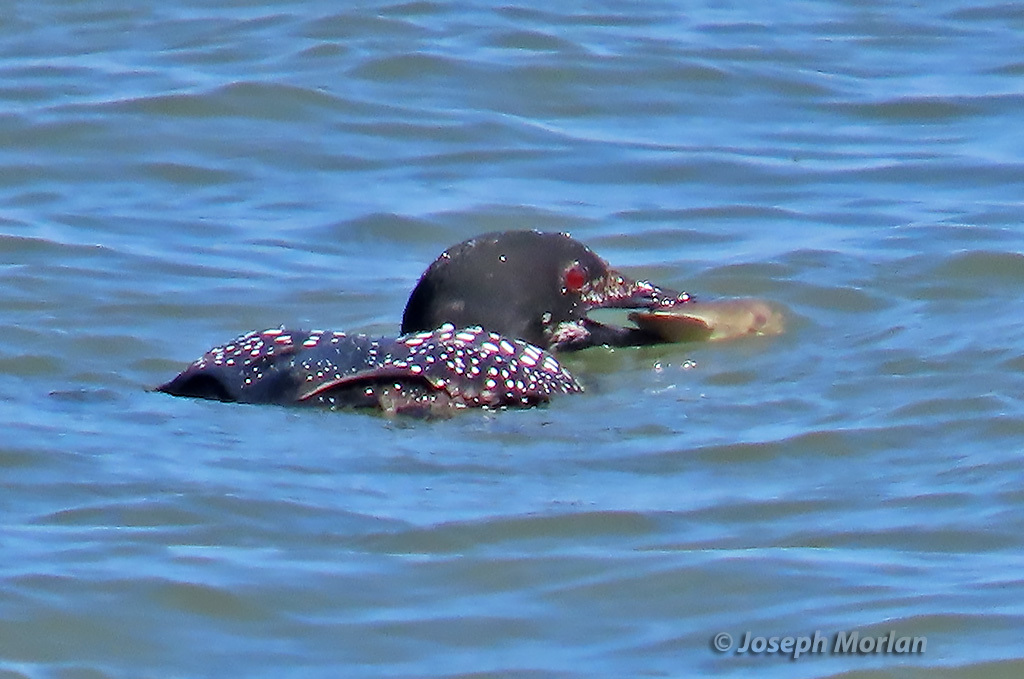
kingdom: Animalia
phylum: Chordata
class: Aves
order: Gaviiformes
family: Gaviidae
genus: Gavia
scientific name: Gavia immer
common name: Common loon
